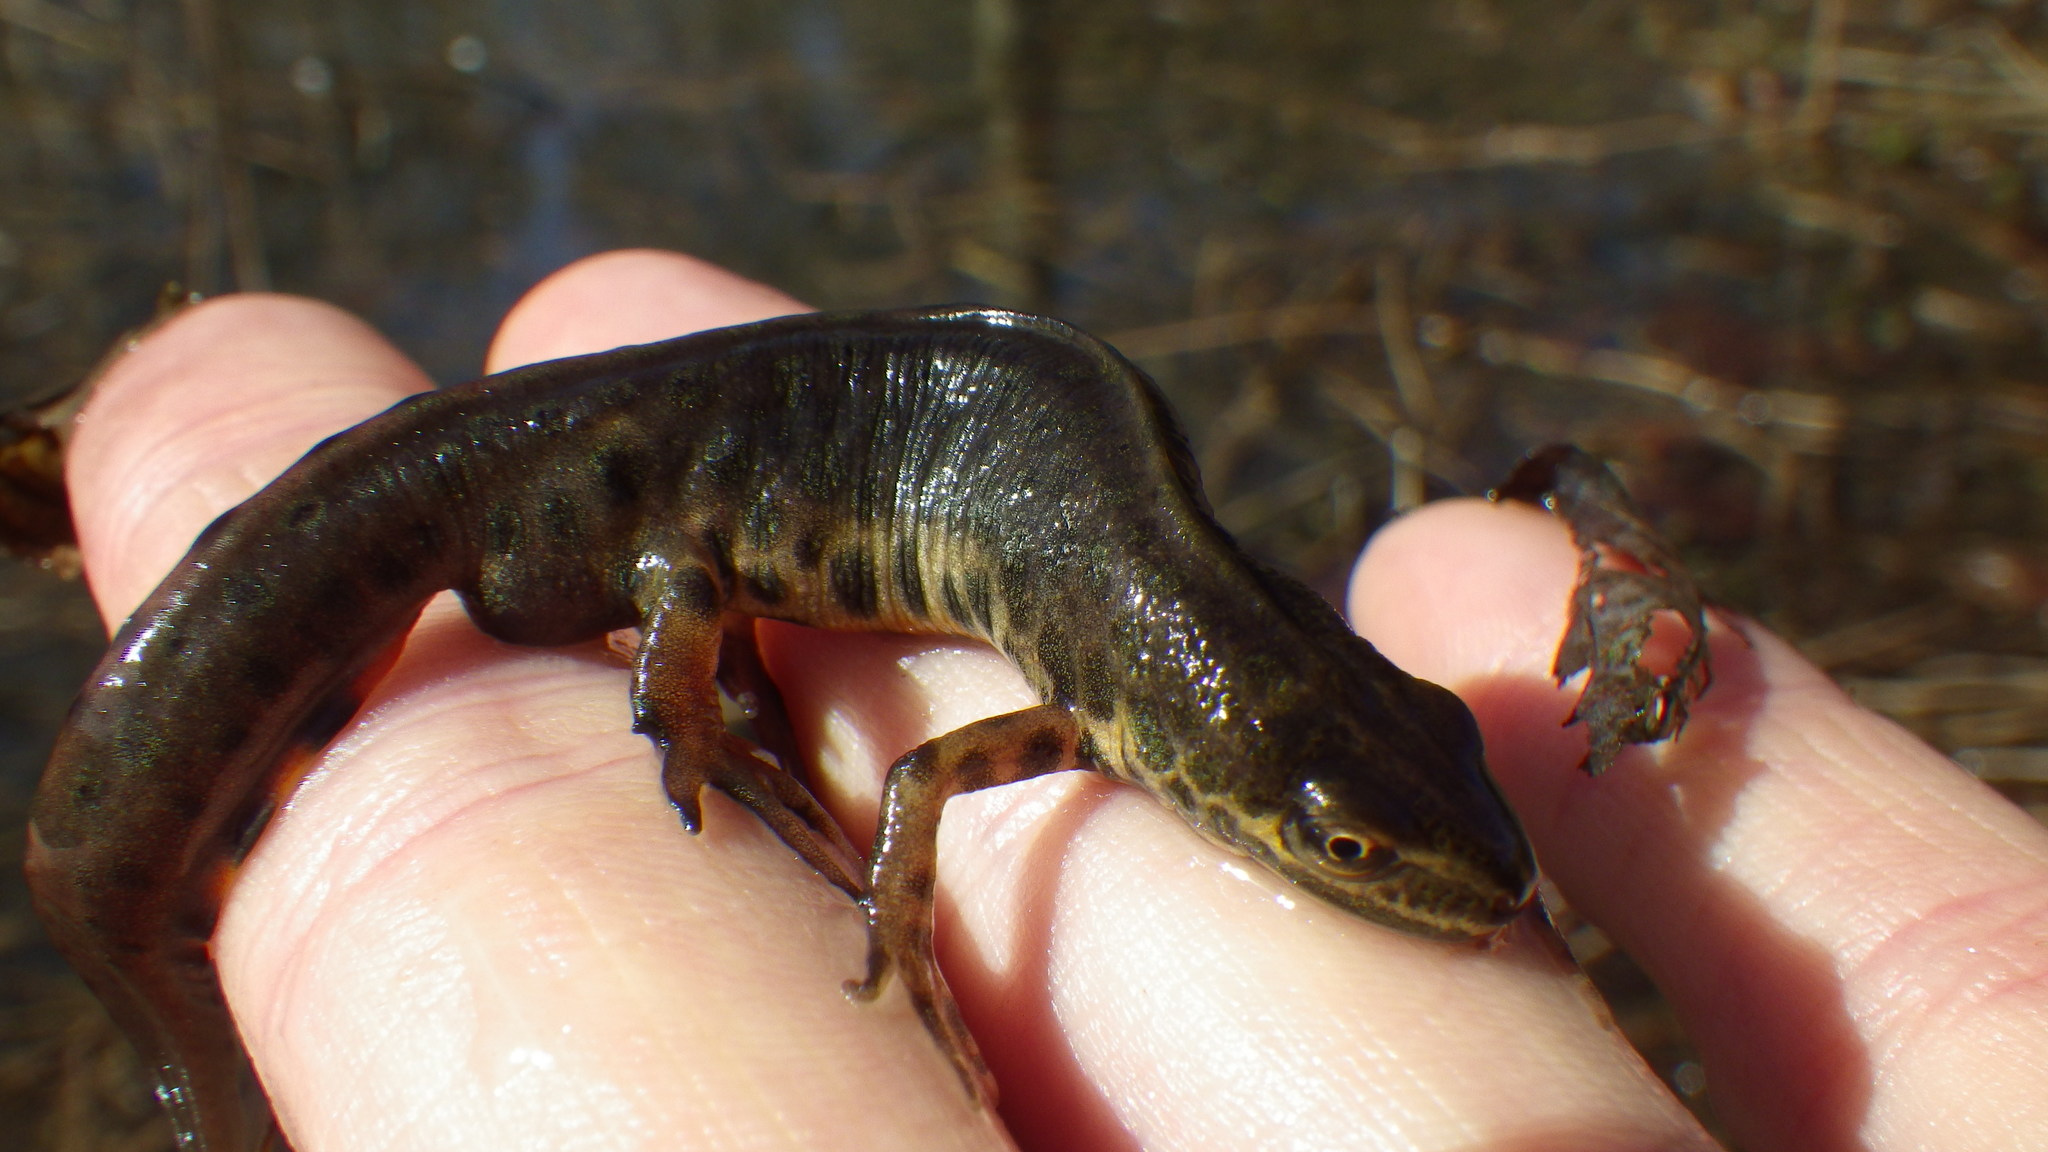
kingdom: Animalia
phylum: Chordata
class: Amphibia
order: Caudata
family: Salamandridae
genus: Lissotriton
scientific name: Lissotriton vulgaris
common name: Smooth newt
